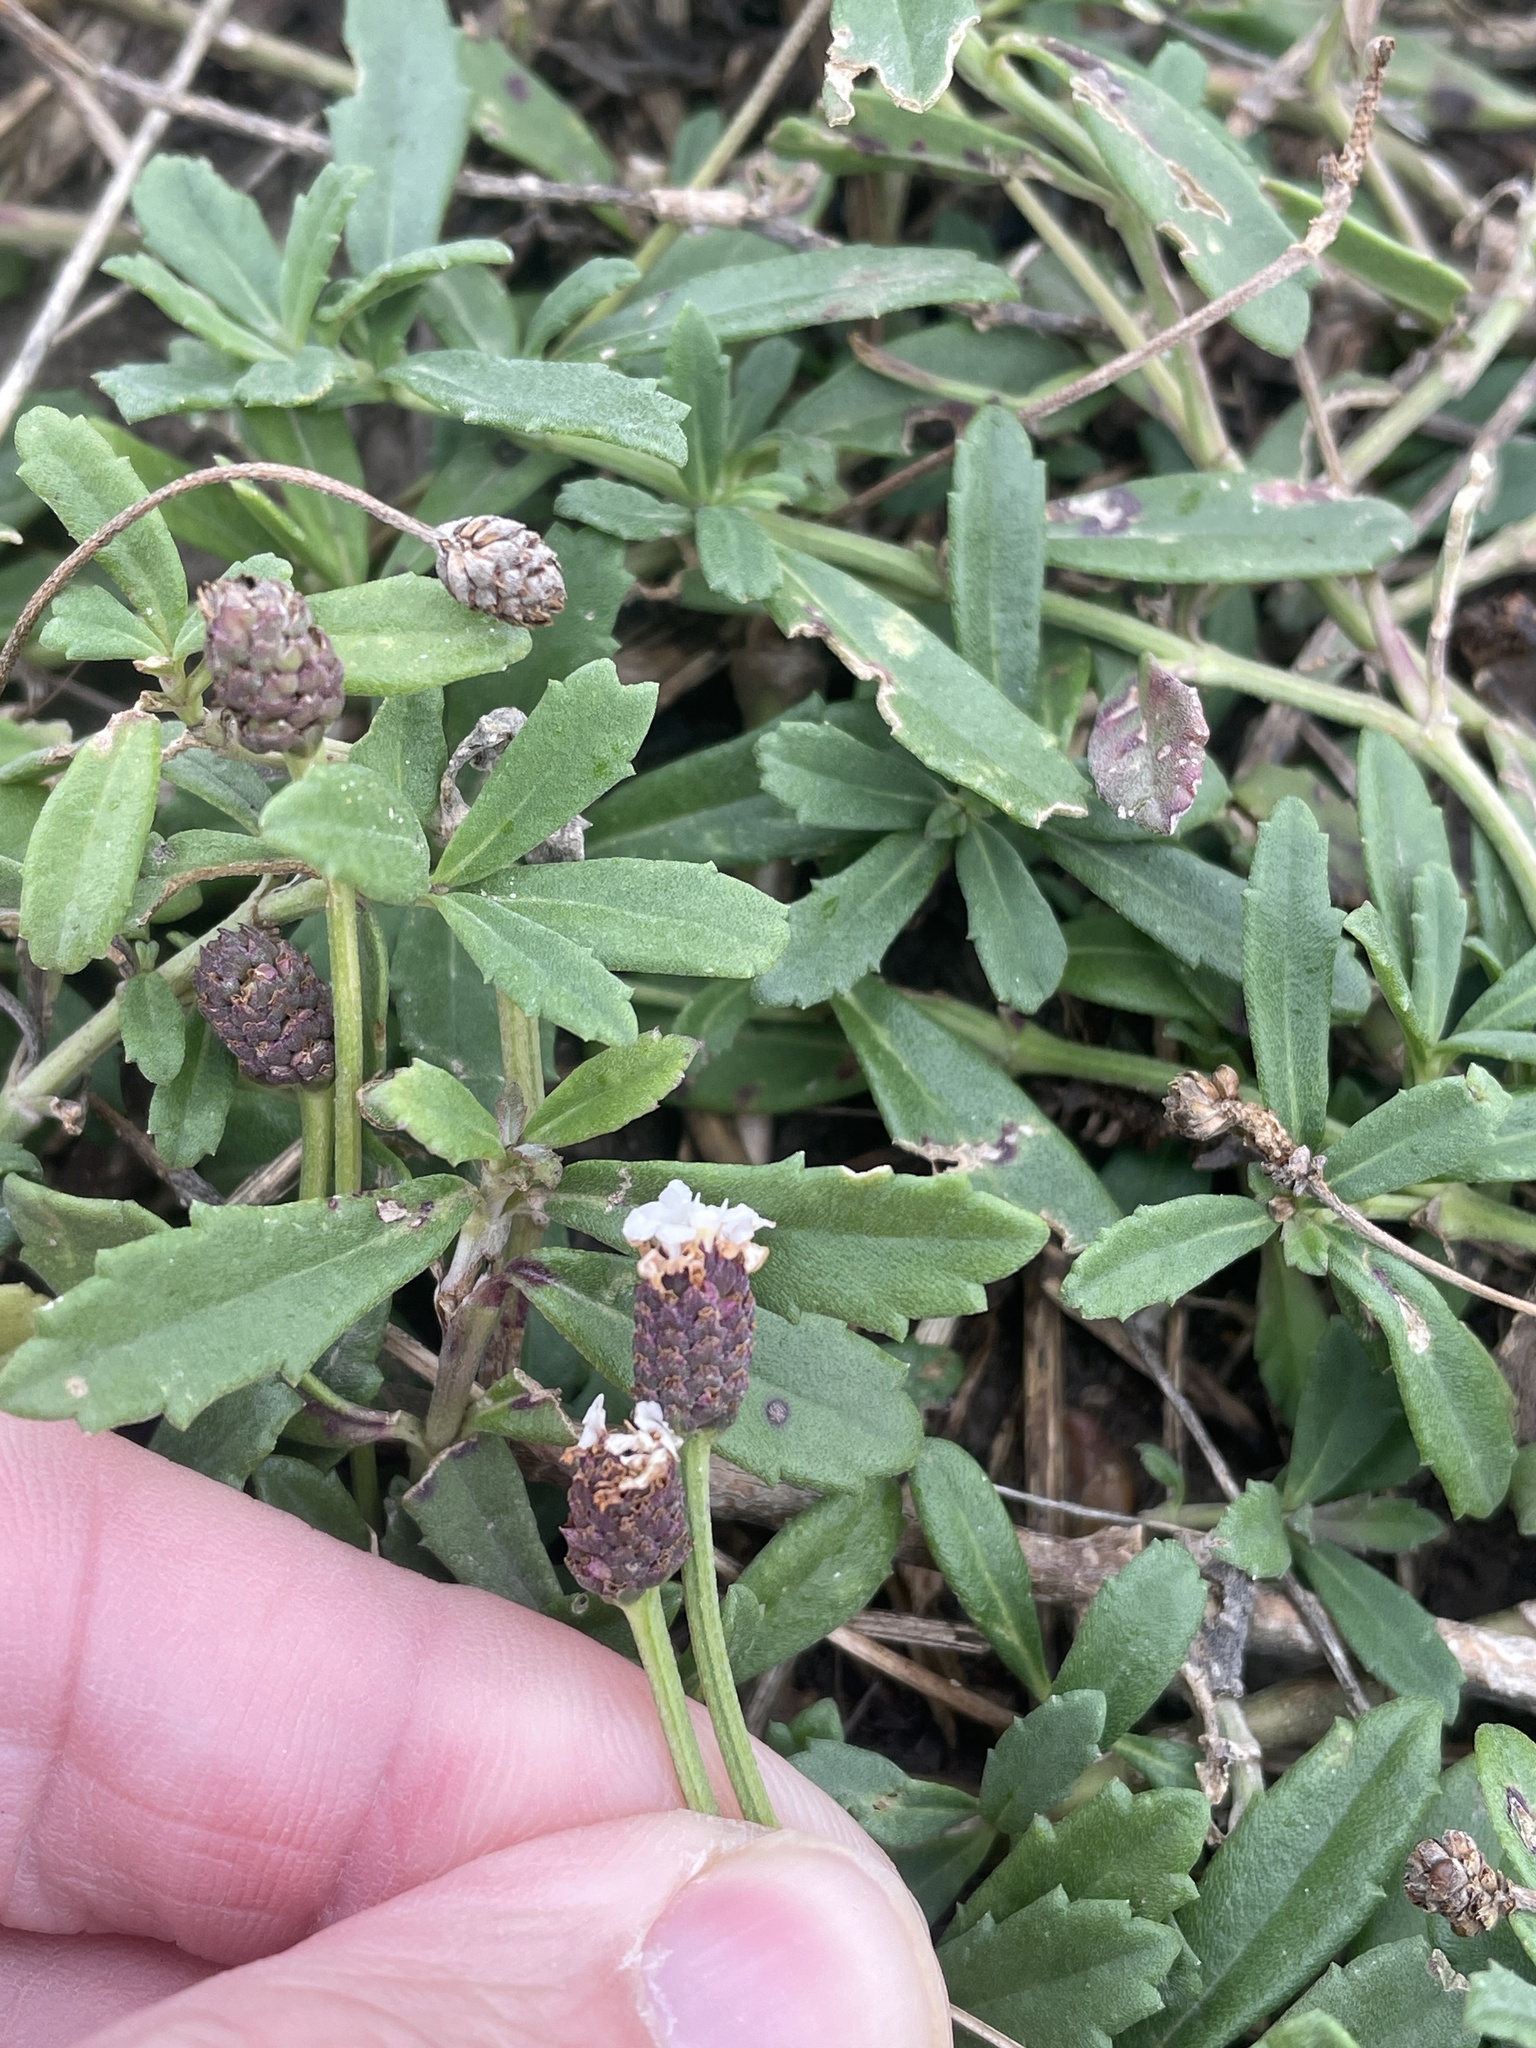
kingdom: Plantae
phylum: Tracheophyta
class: Magnoliopsida
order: Lamiales
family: Verbenaceae
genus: Phyla
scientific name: Phyla nodiflora
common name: Frogfruit
